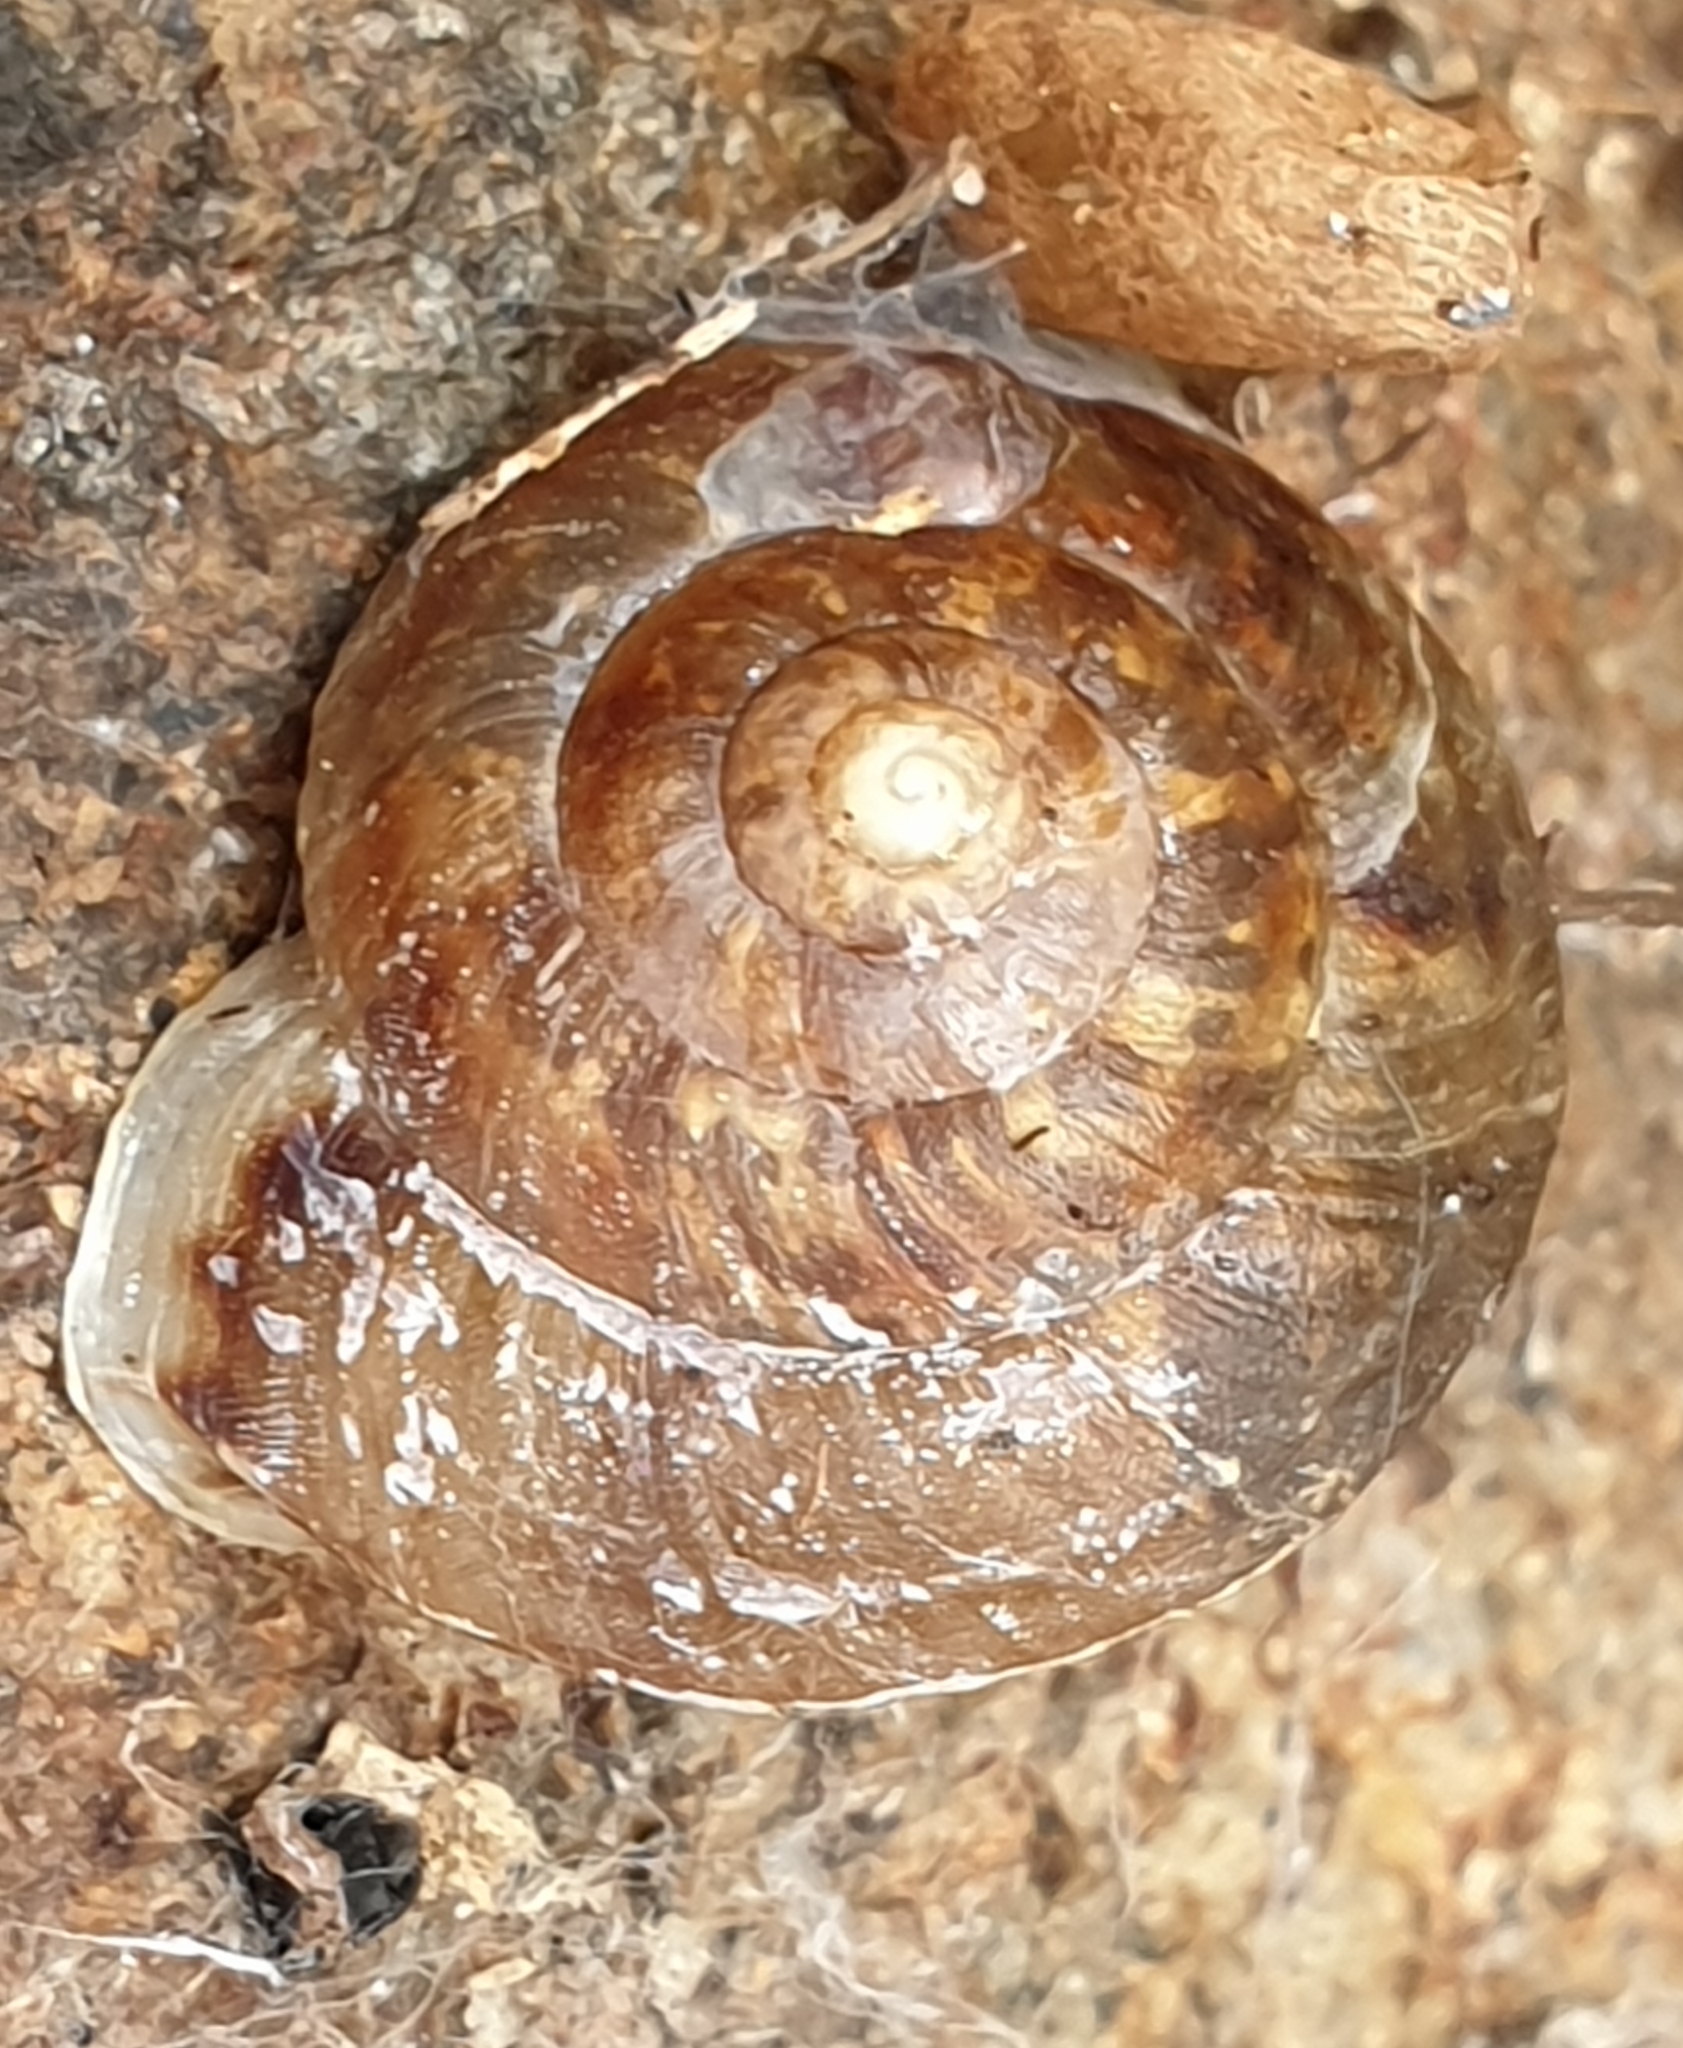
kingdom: Animalia
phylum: Mollusca
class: Gastropoda
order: Stylommatophora
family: Helicidae
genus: Helicigona
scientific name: Helicigona lapicida
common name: Lapidary snail
